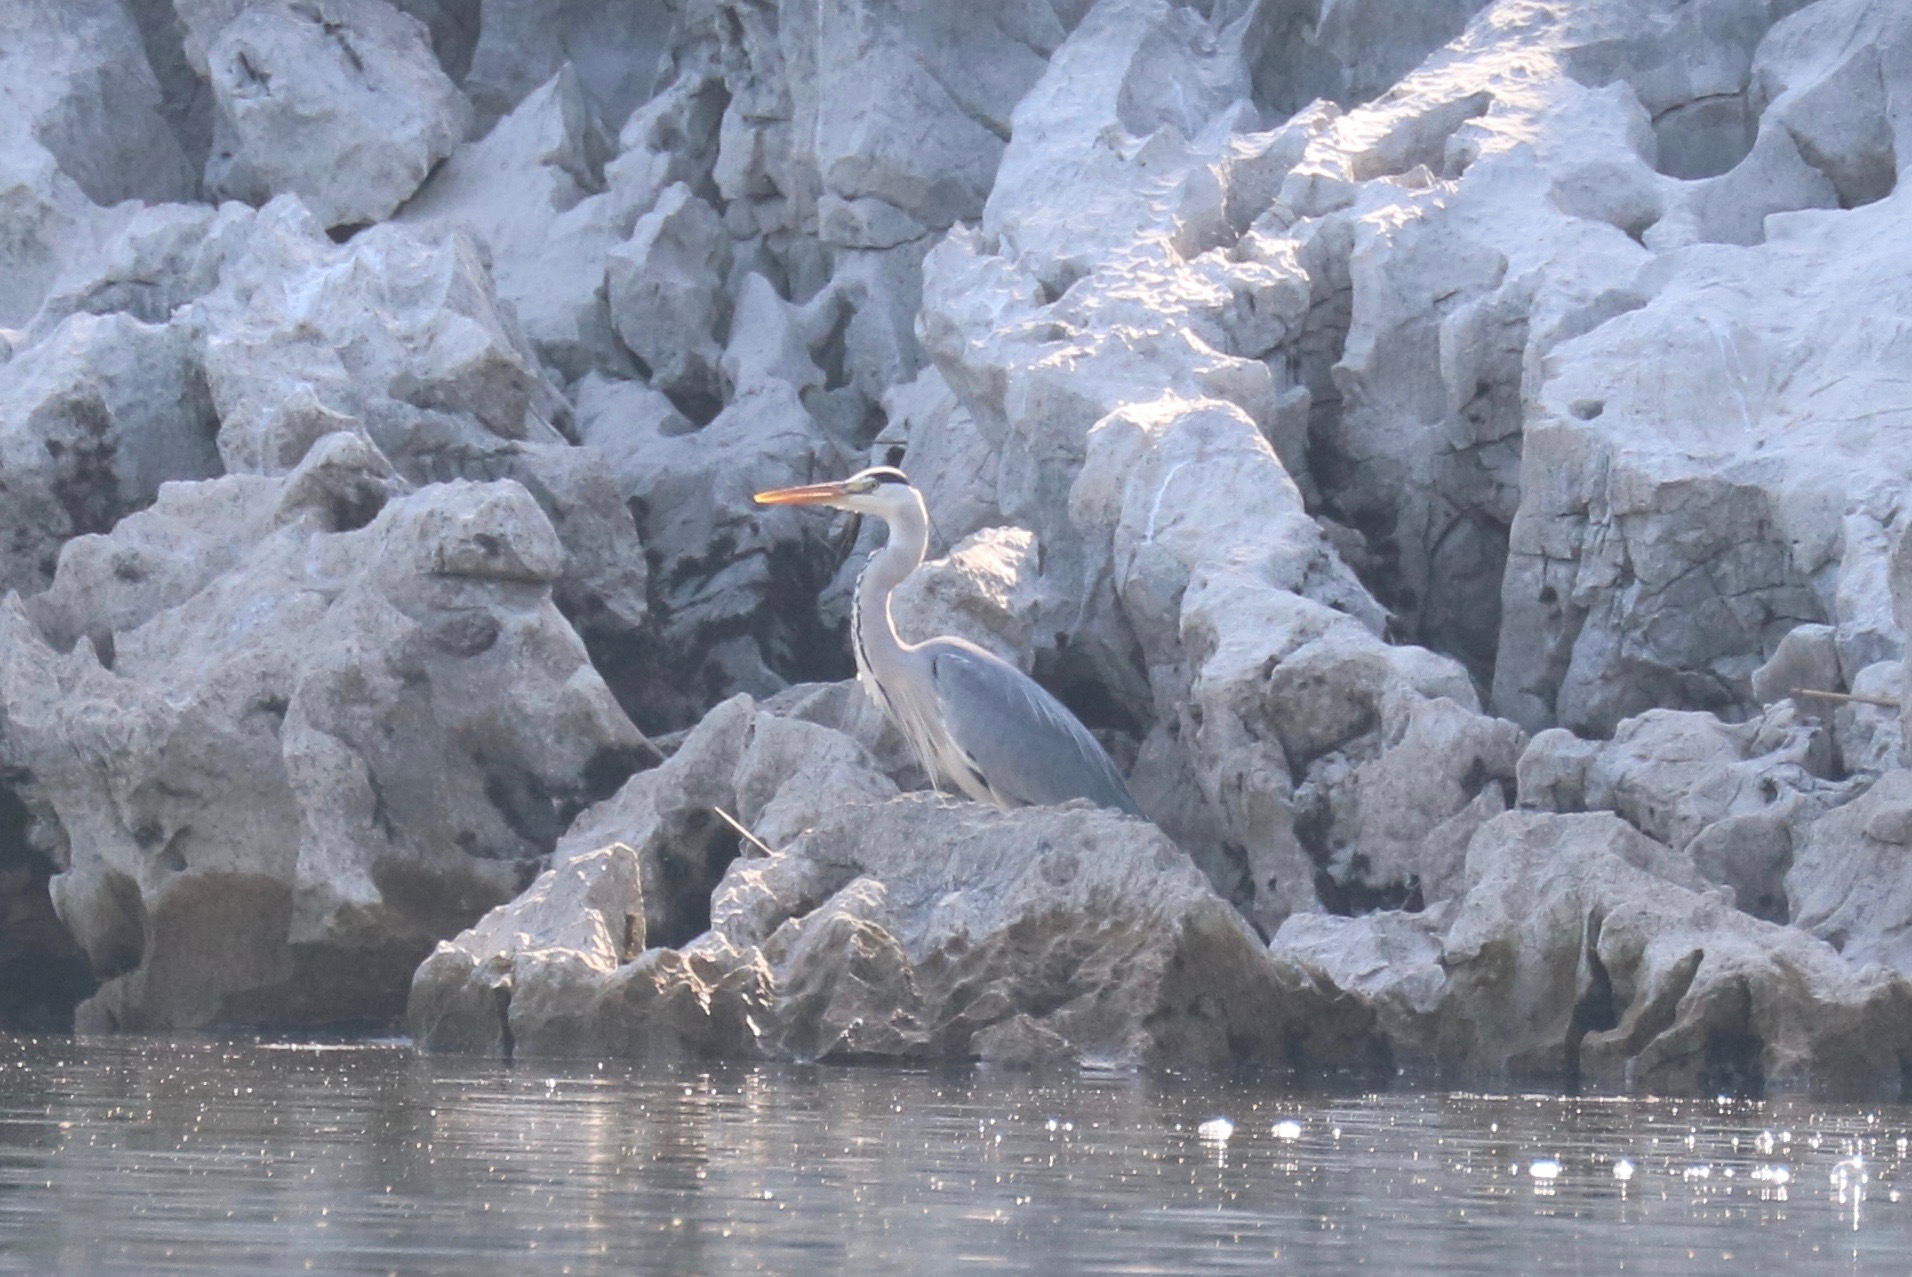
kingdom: Animalia
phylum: Chordata
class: Aves
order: Pelecaniformes
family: Ardeidae
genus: Ardea
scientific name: Ardea cinerea
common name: Grey heron
